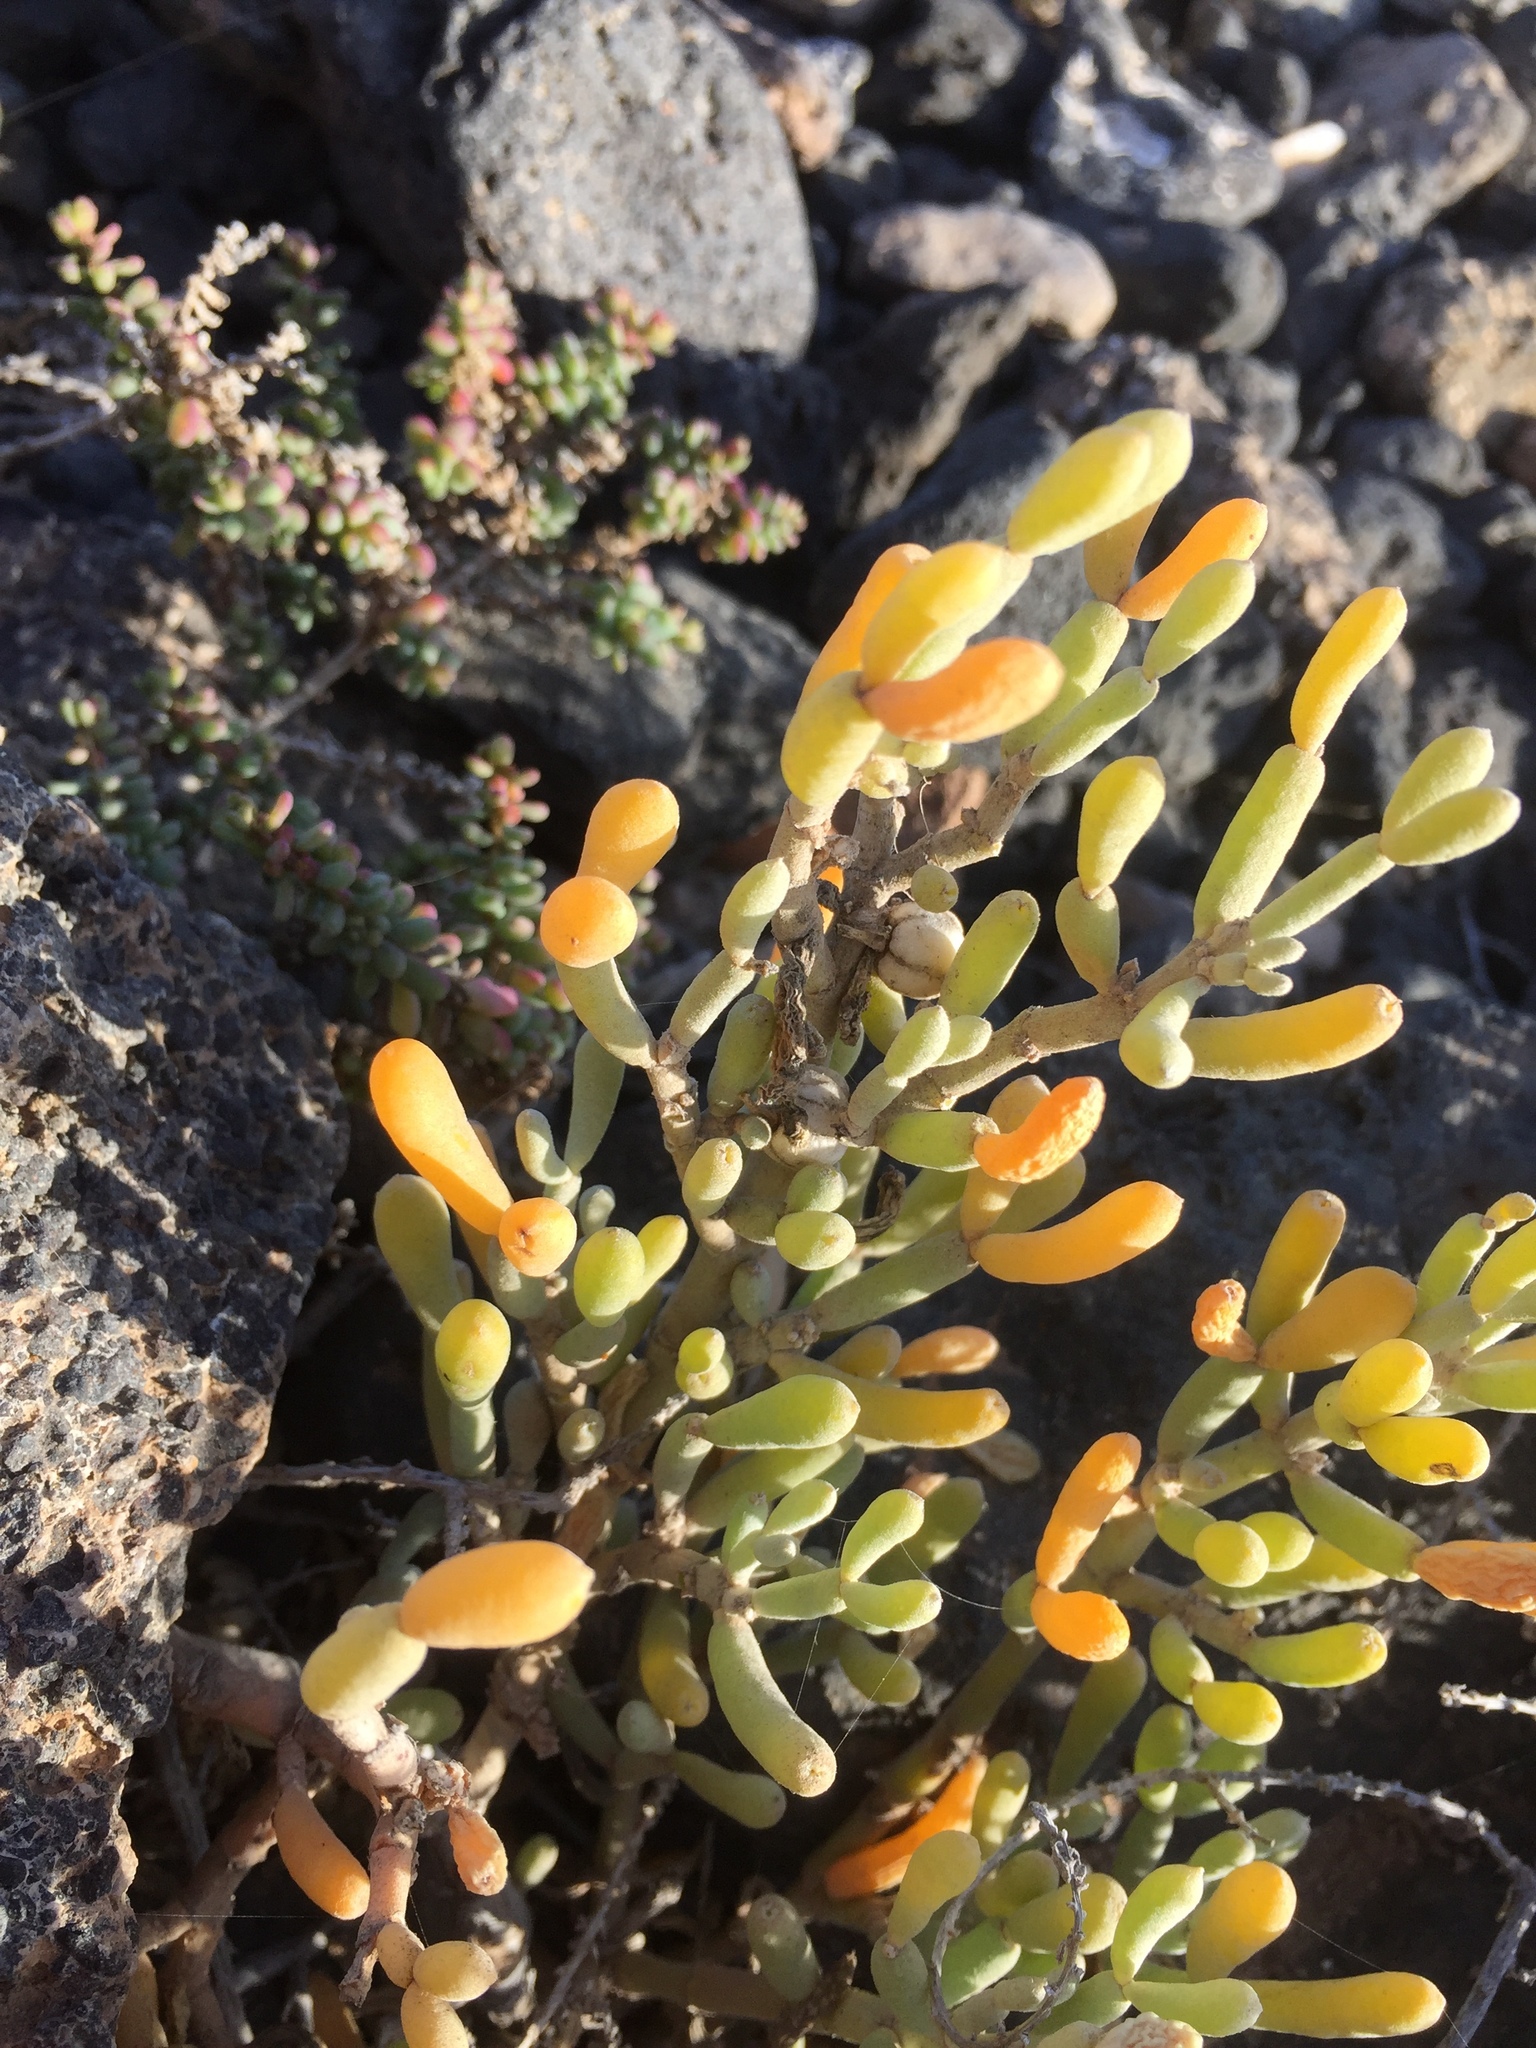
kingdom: Plantae
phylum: Tracheophyta
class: Magnoliopsida
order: Zygophyllales
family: Zygophyllaceae
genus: Tetraena
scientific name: Tetraena fontanesii
